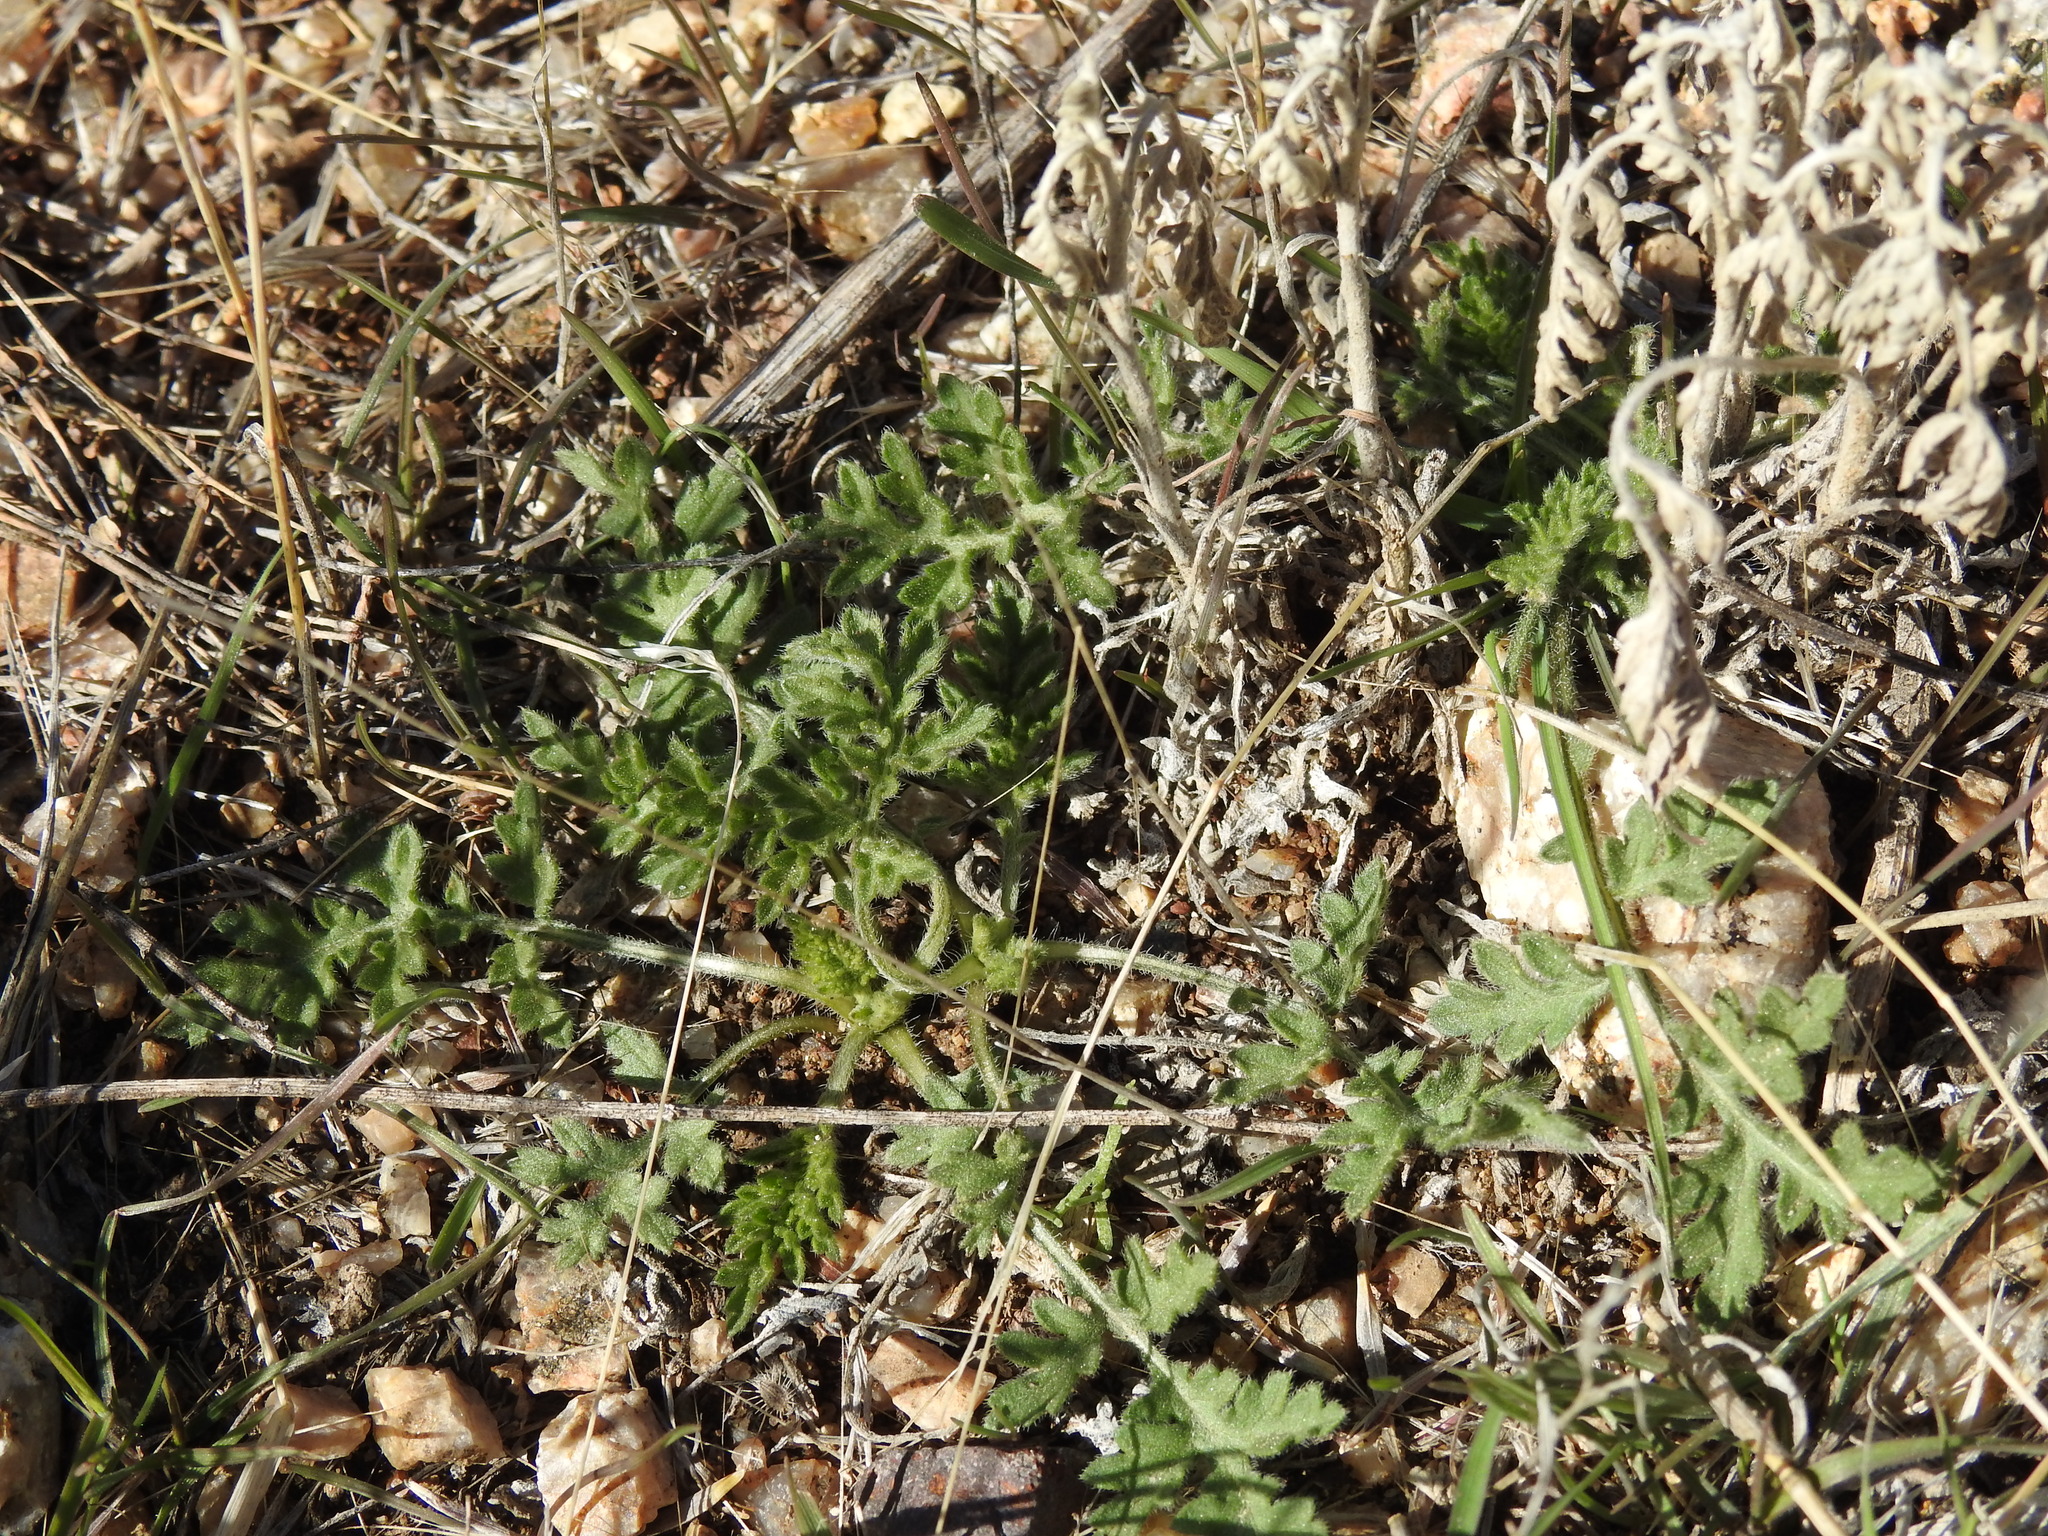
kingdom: Plantae
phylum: Tracheophyta
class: Magnoliopsida
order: Asterales
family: Asteraceae
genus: Ambrosia
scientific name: Ambrosia confertiflora
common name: Bur ragweed
